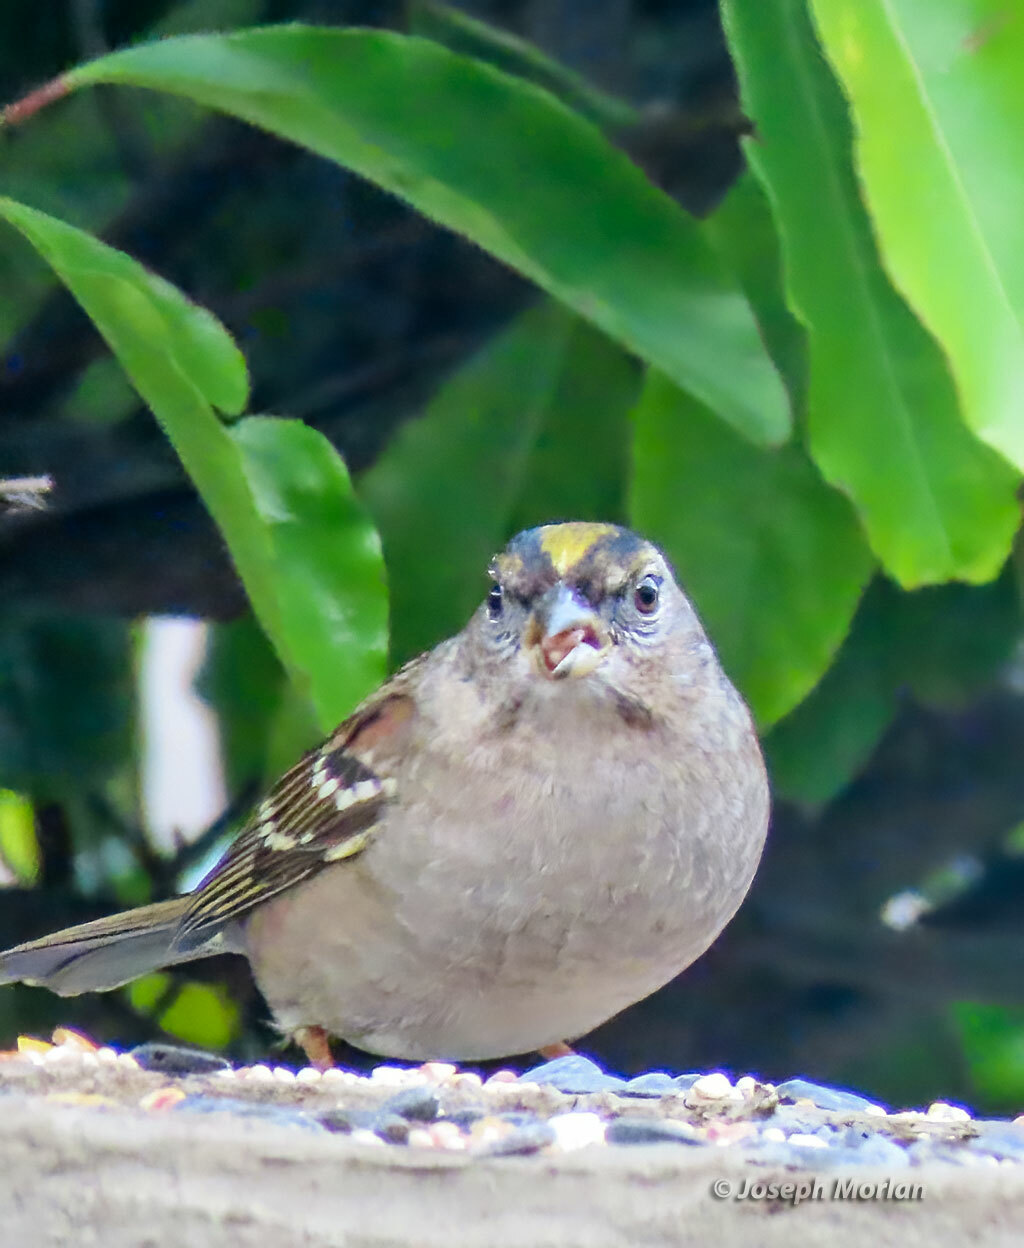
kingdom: Animalia
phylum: Chordata
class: Aves
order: Passeriformes
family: Passerellidae
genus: Zonotrichia
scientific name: Zonotrichia atricapilla
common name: Golden-crowned sparrow
